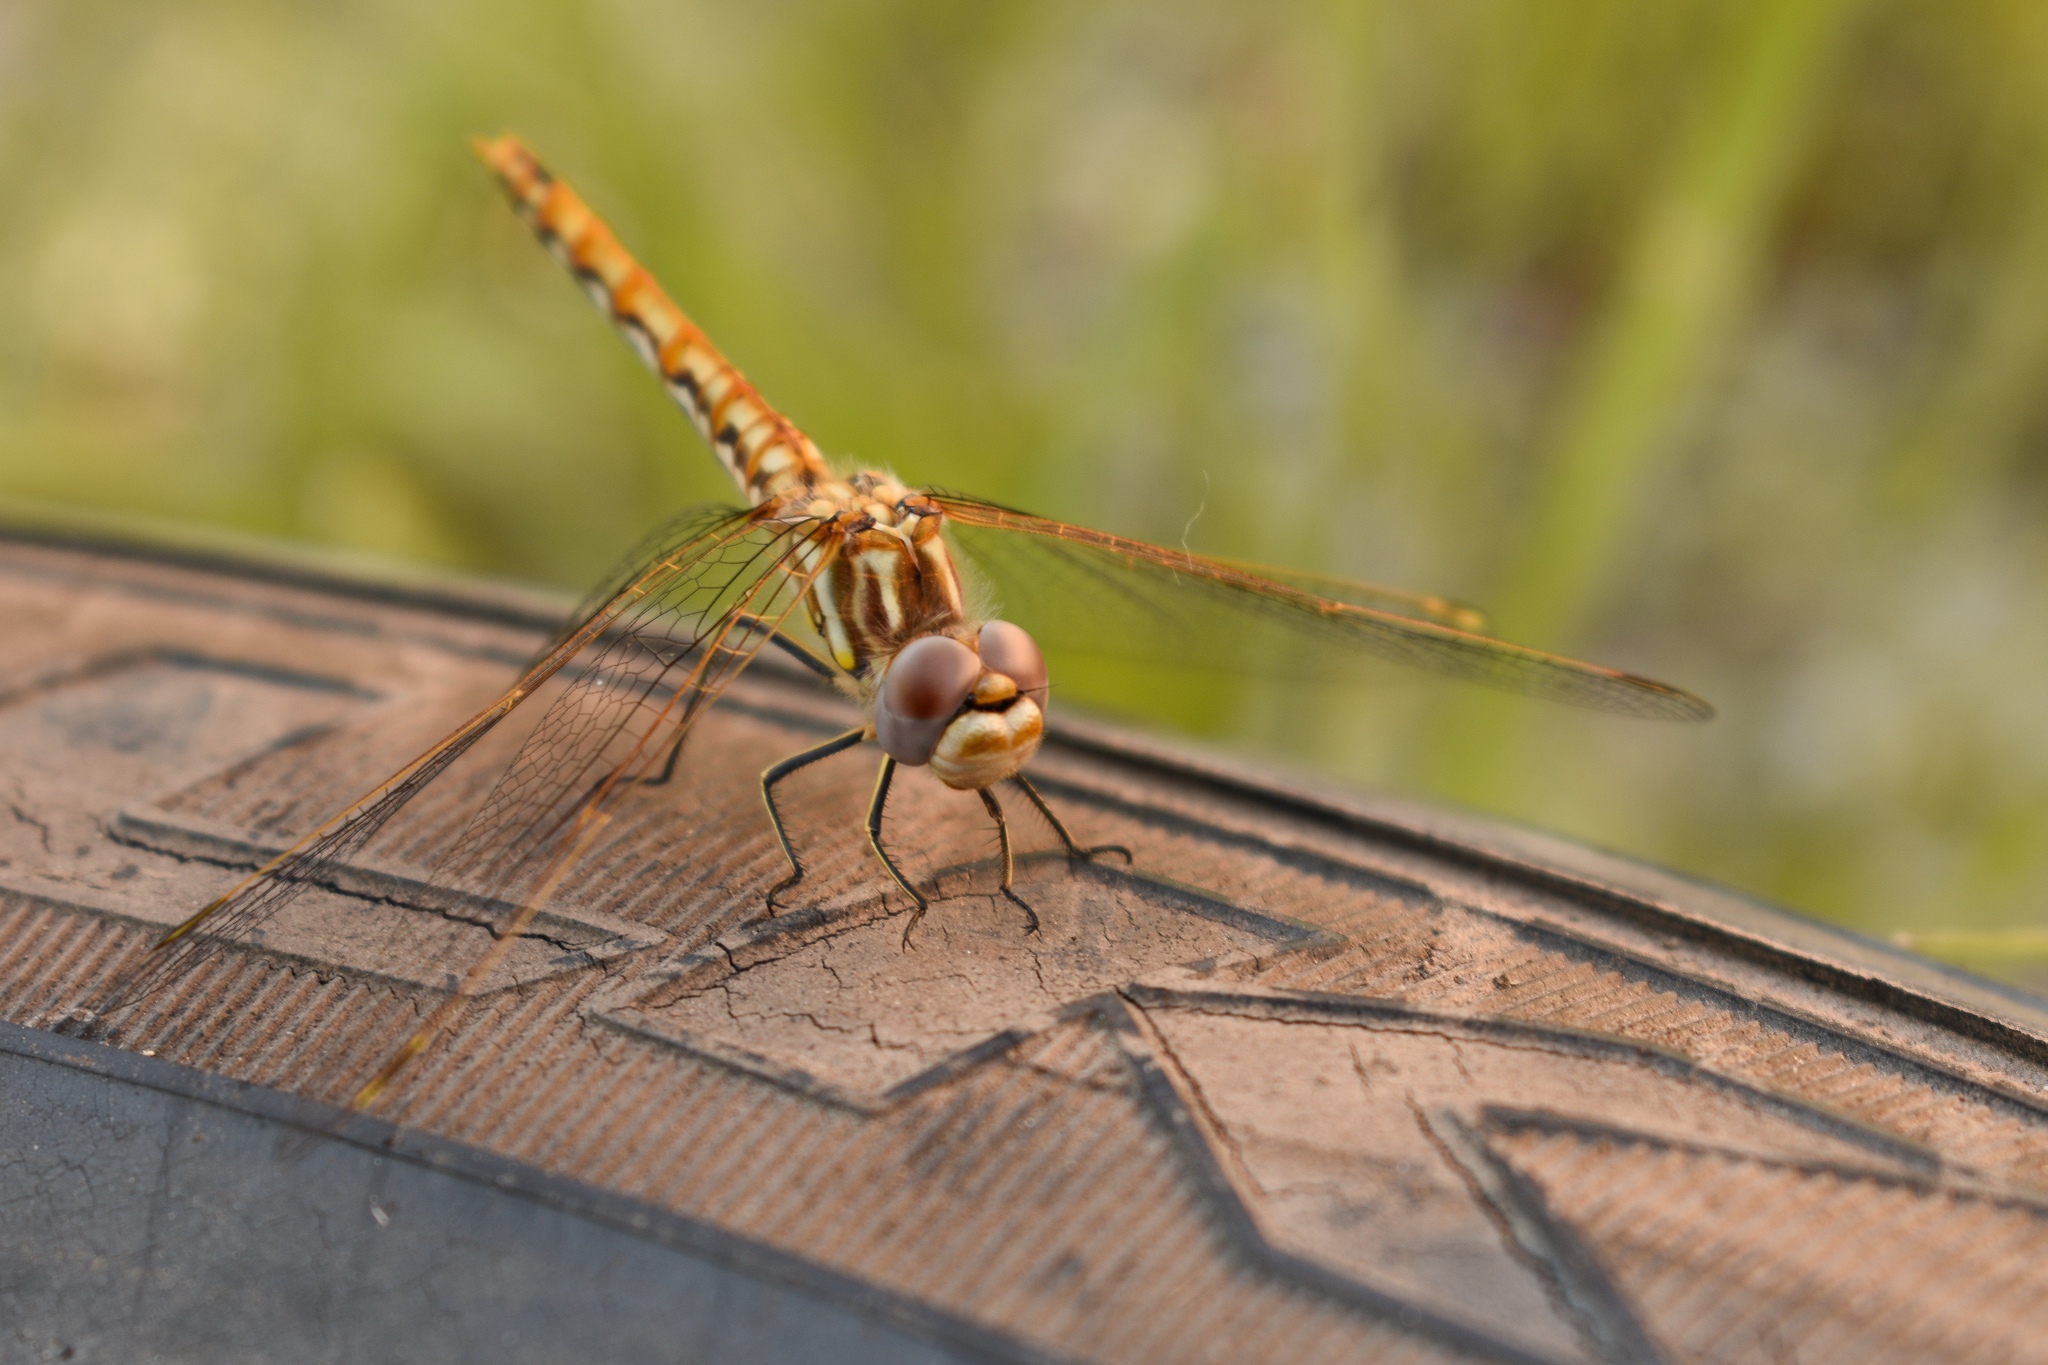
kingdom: Animalia
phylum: Arthropoda
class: Insecta
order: Odonata
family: Libellulidae
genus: Sympetrum
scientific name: Sympetrum corruptum
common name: Variegated meadowhawk
